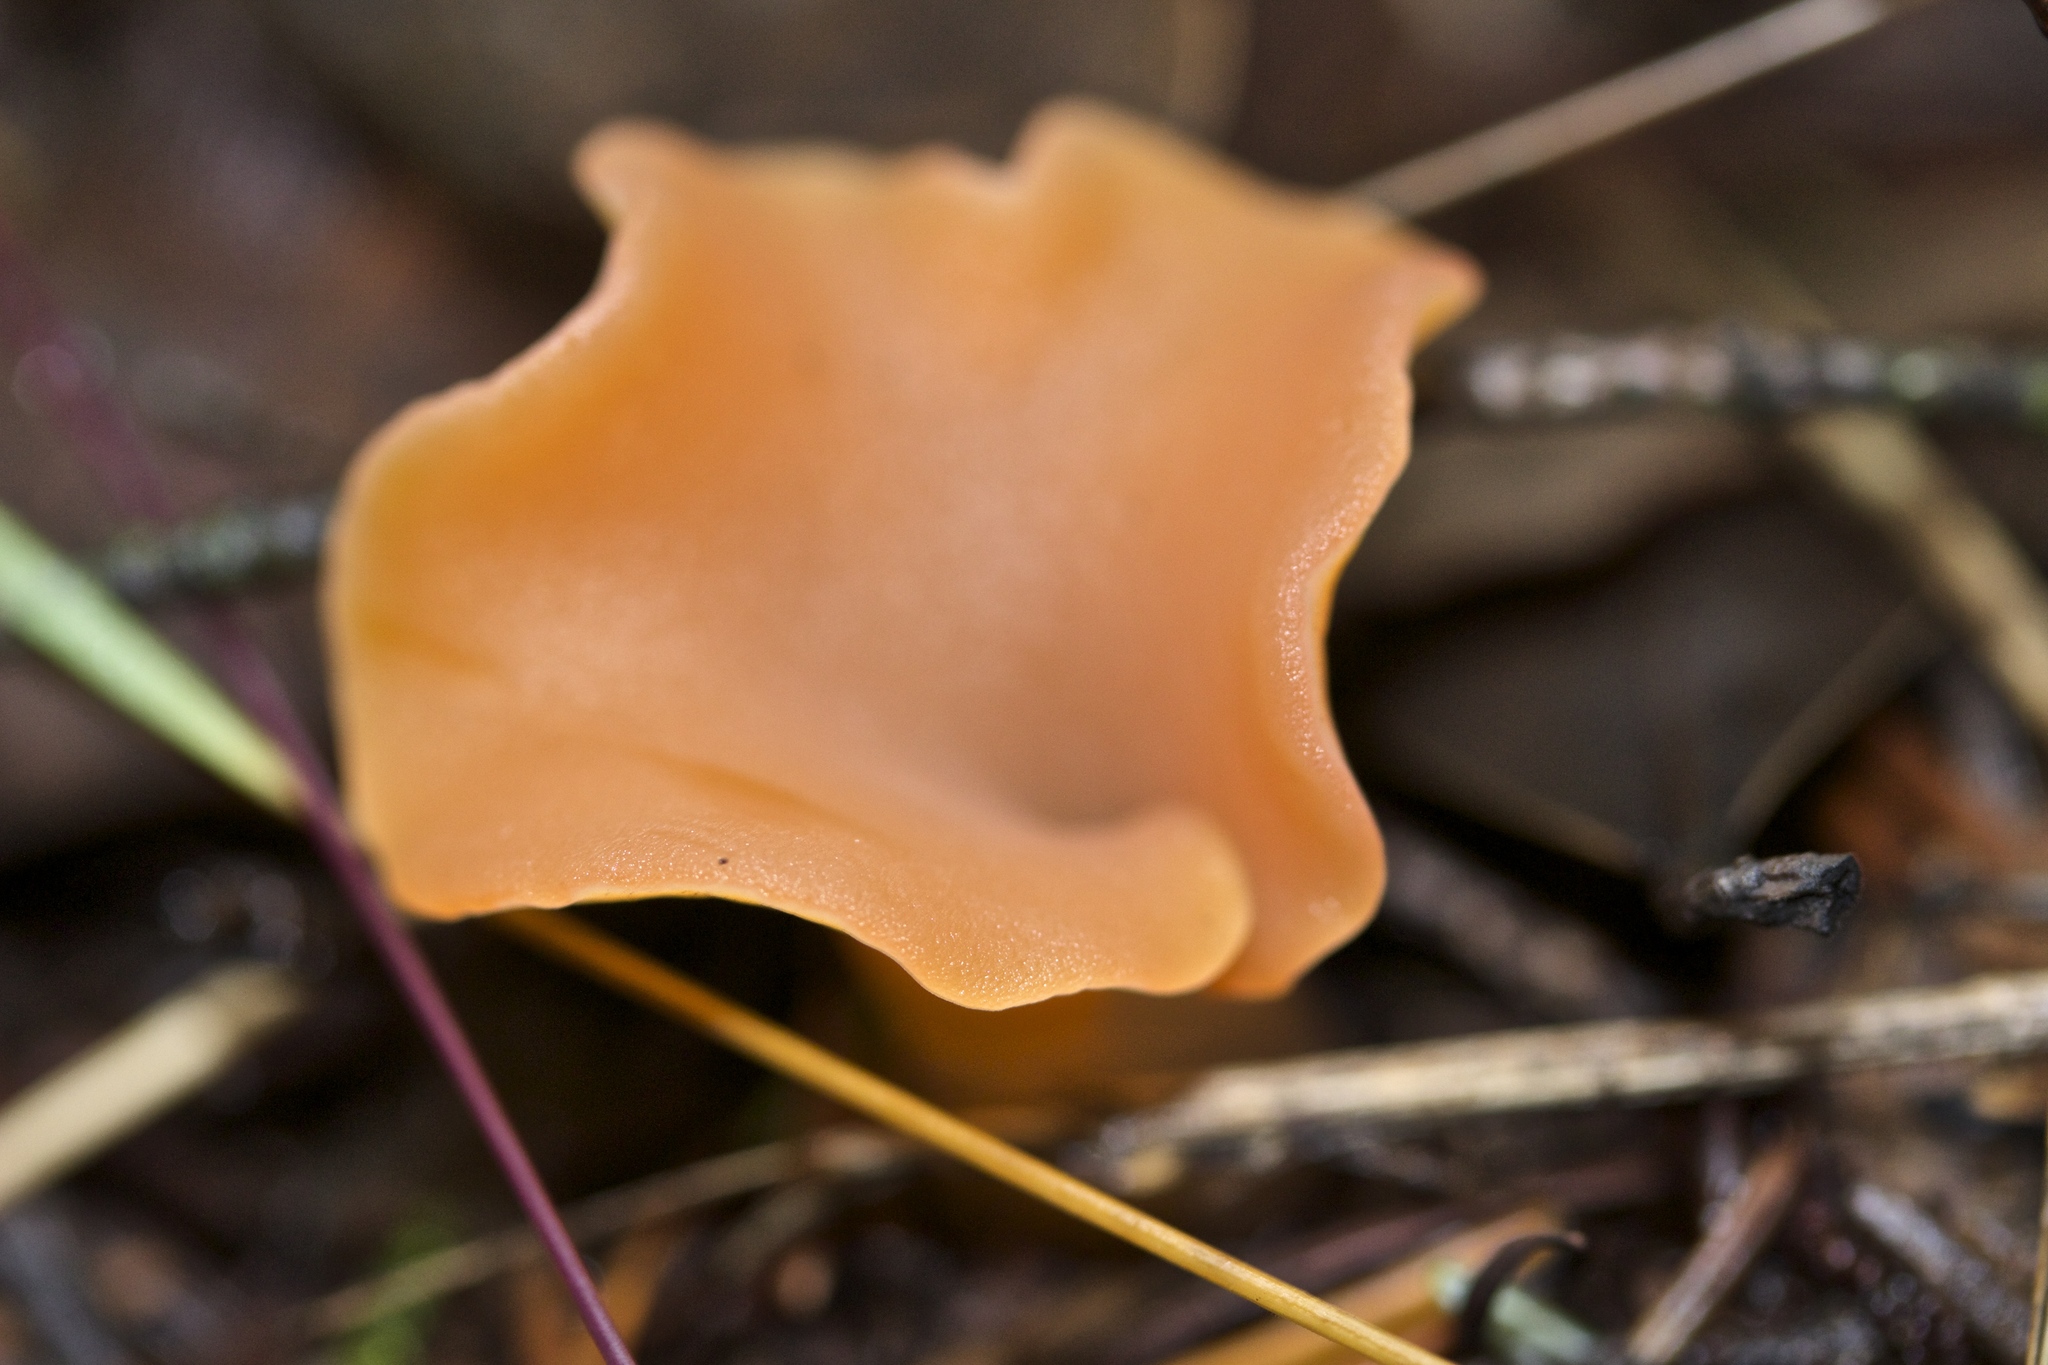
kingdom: Fungi
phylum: Basidiomycota
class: Agaricomycetes
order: Auriculariales
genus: Guepinia
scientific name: Guepinia helvelloides
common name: Salmon salad
